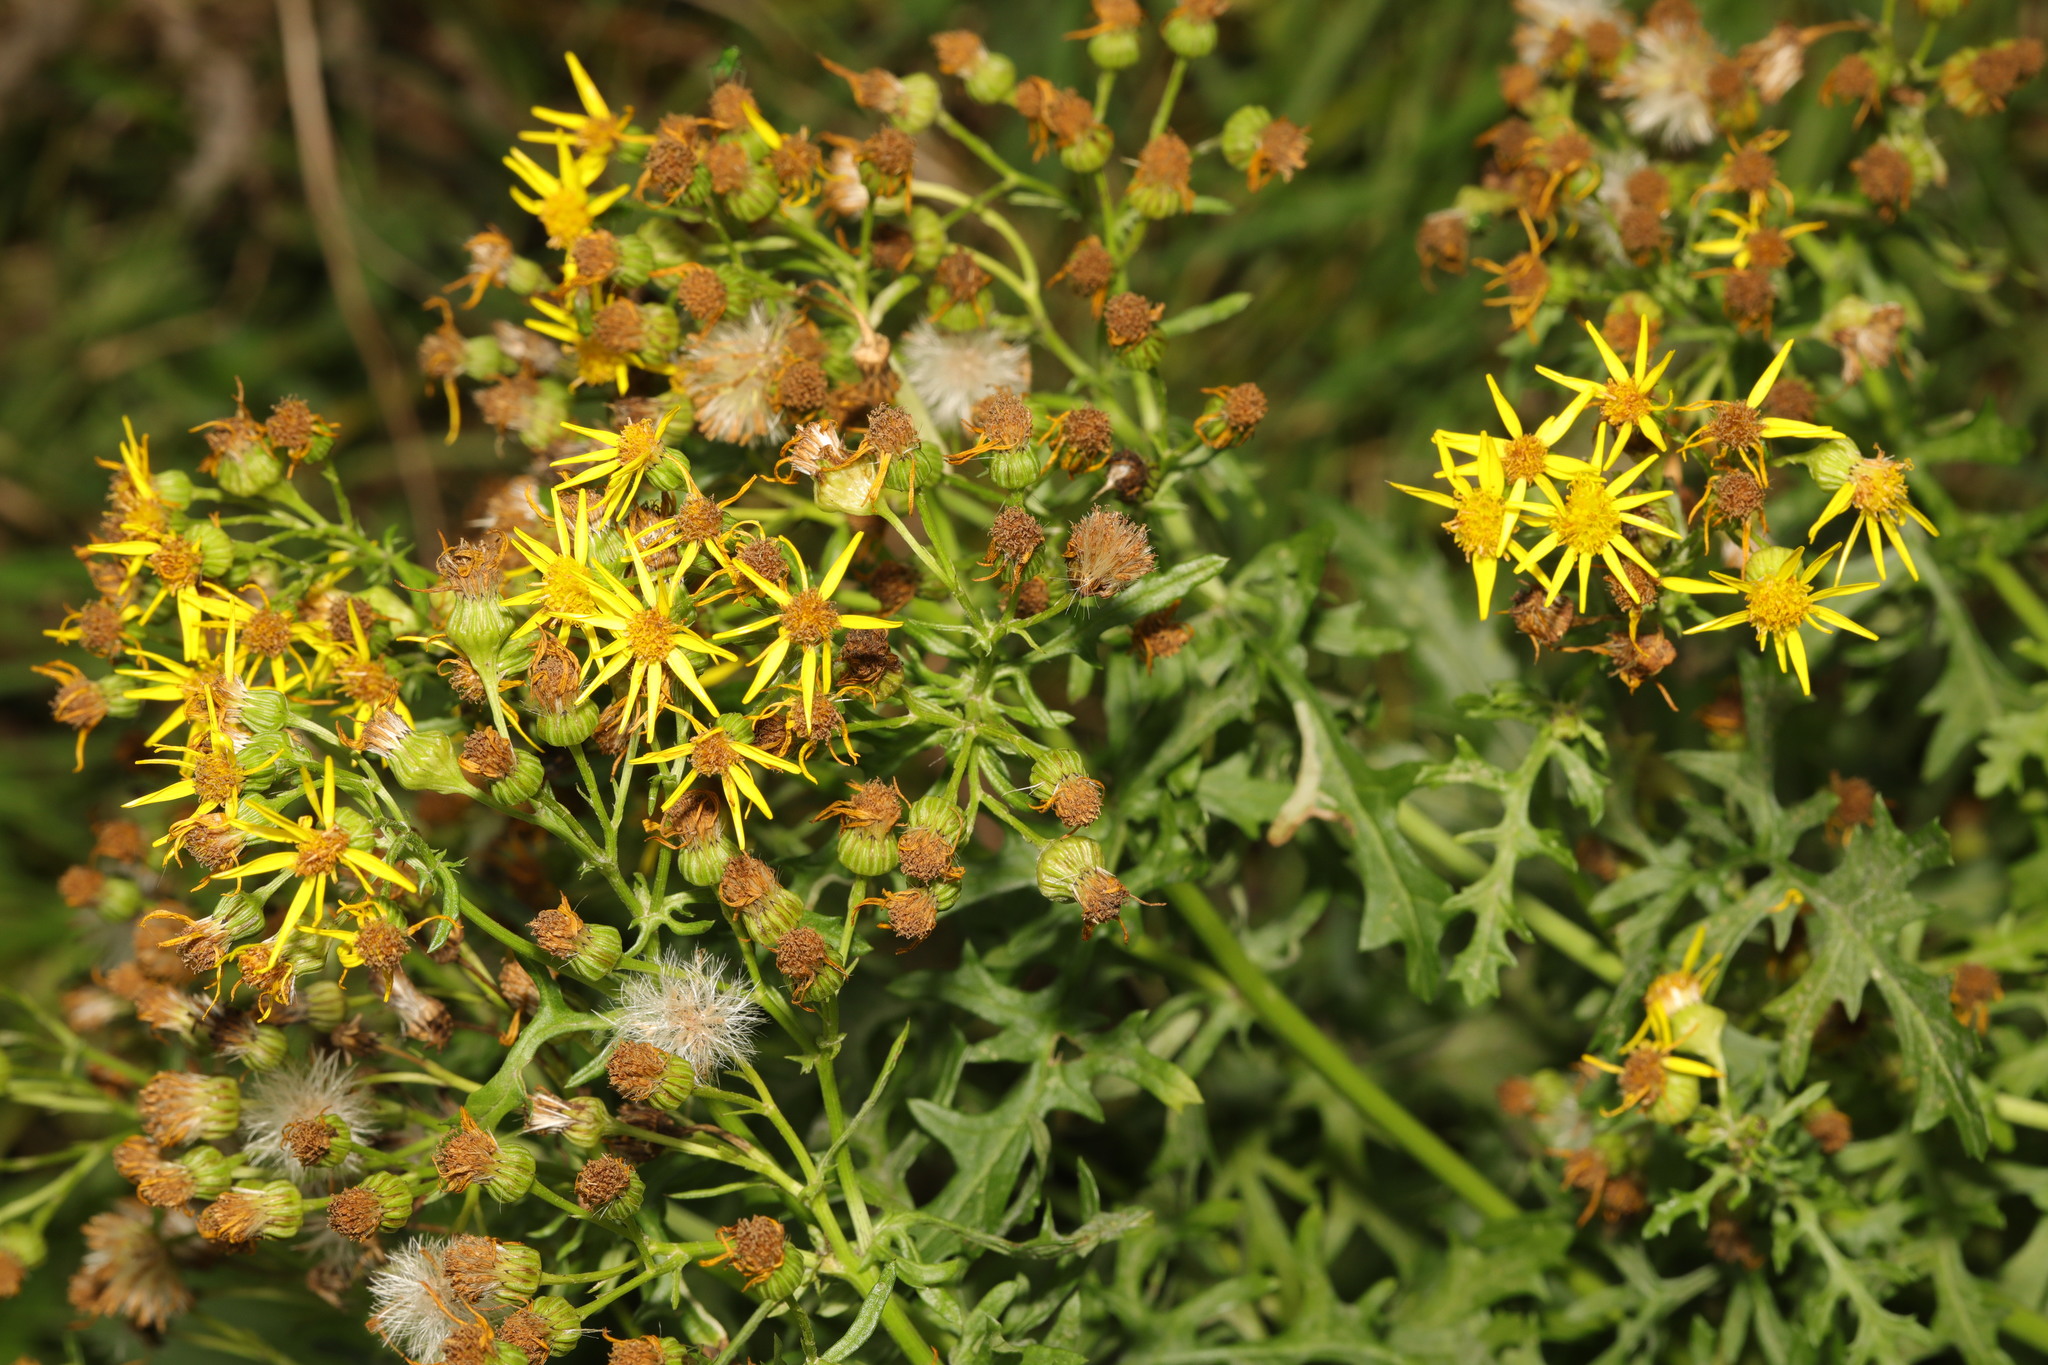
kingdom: Plantae
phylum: Tracheophyta
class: Magnoliopsida
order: Asterales
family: Asteraceae
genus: Jacobaea
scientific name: Jacobaea vulgaris
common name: Stinking willie
